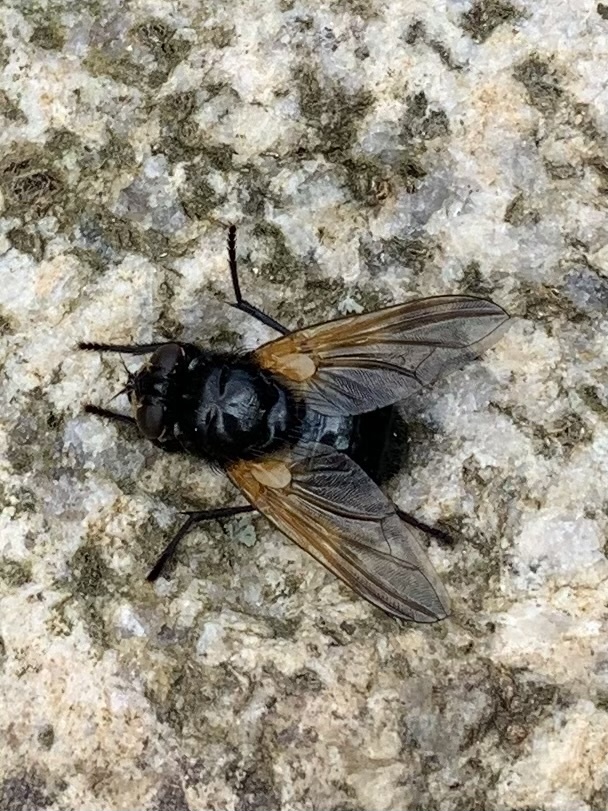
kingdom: Animalia
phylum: Arthropoda
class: Insecta
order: Diptera
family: Muscidae
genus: Mesembrina
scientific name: Mesembrina meridiana
